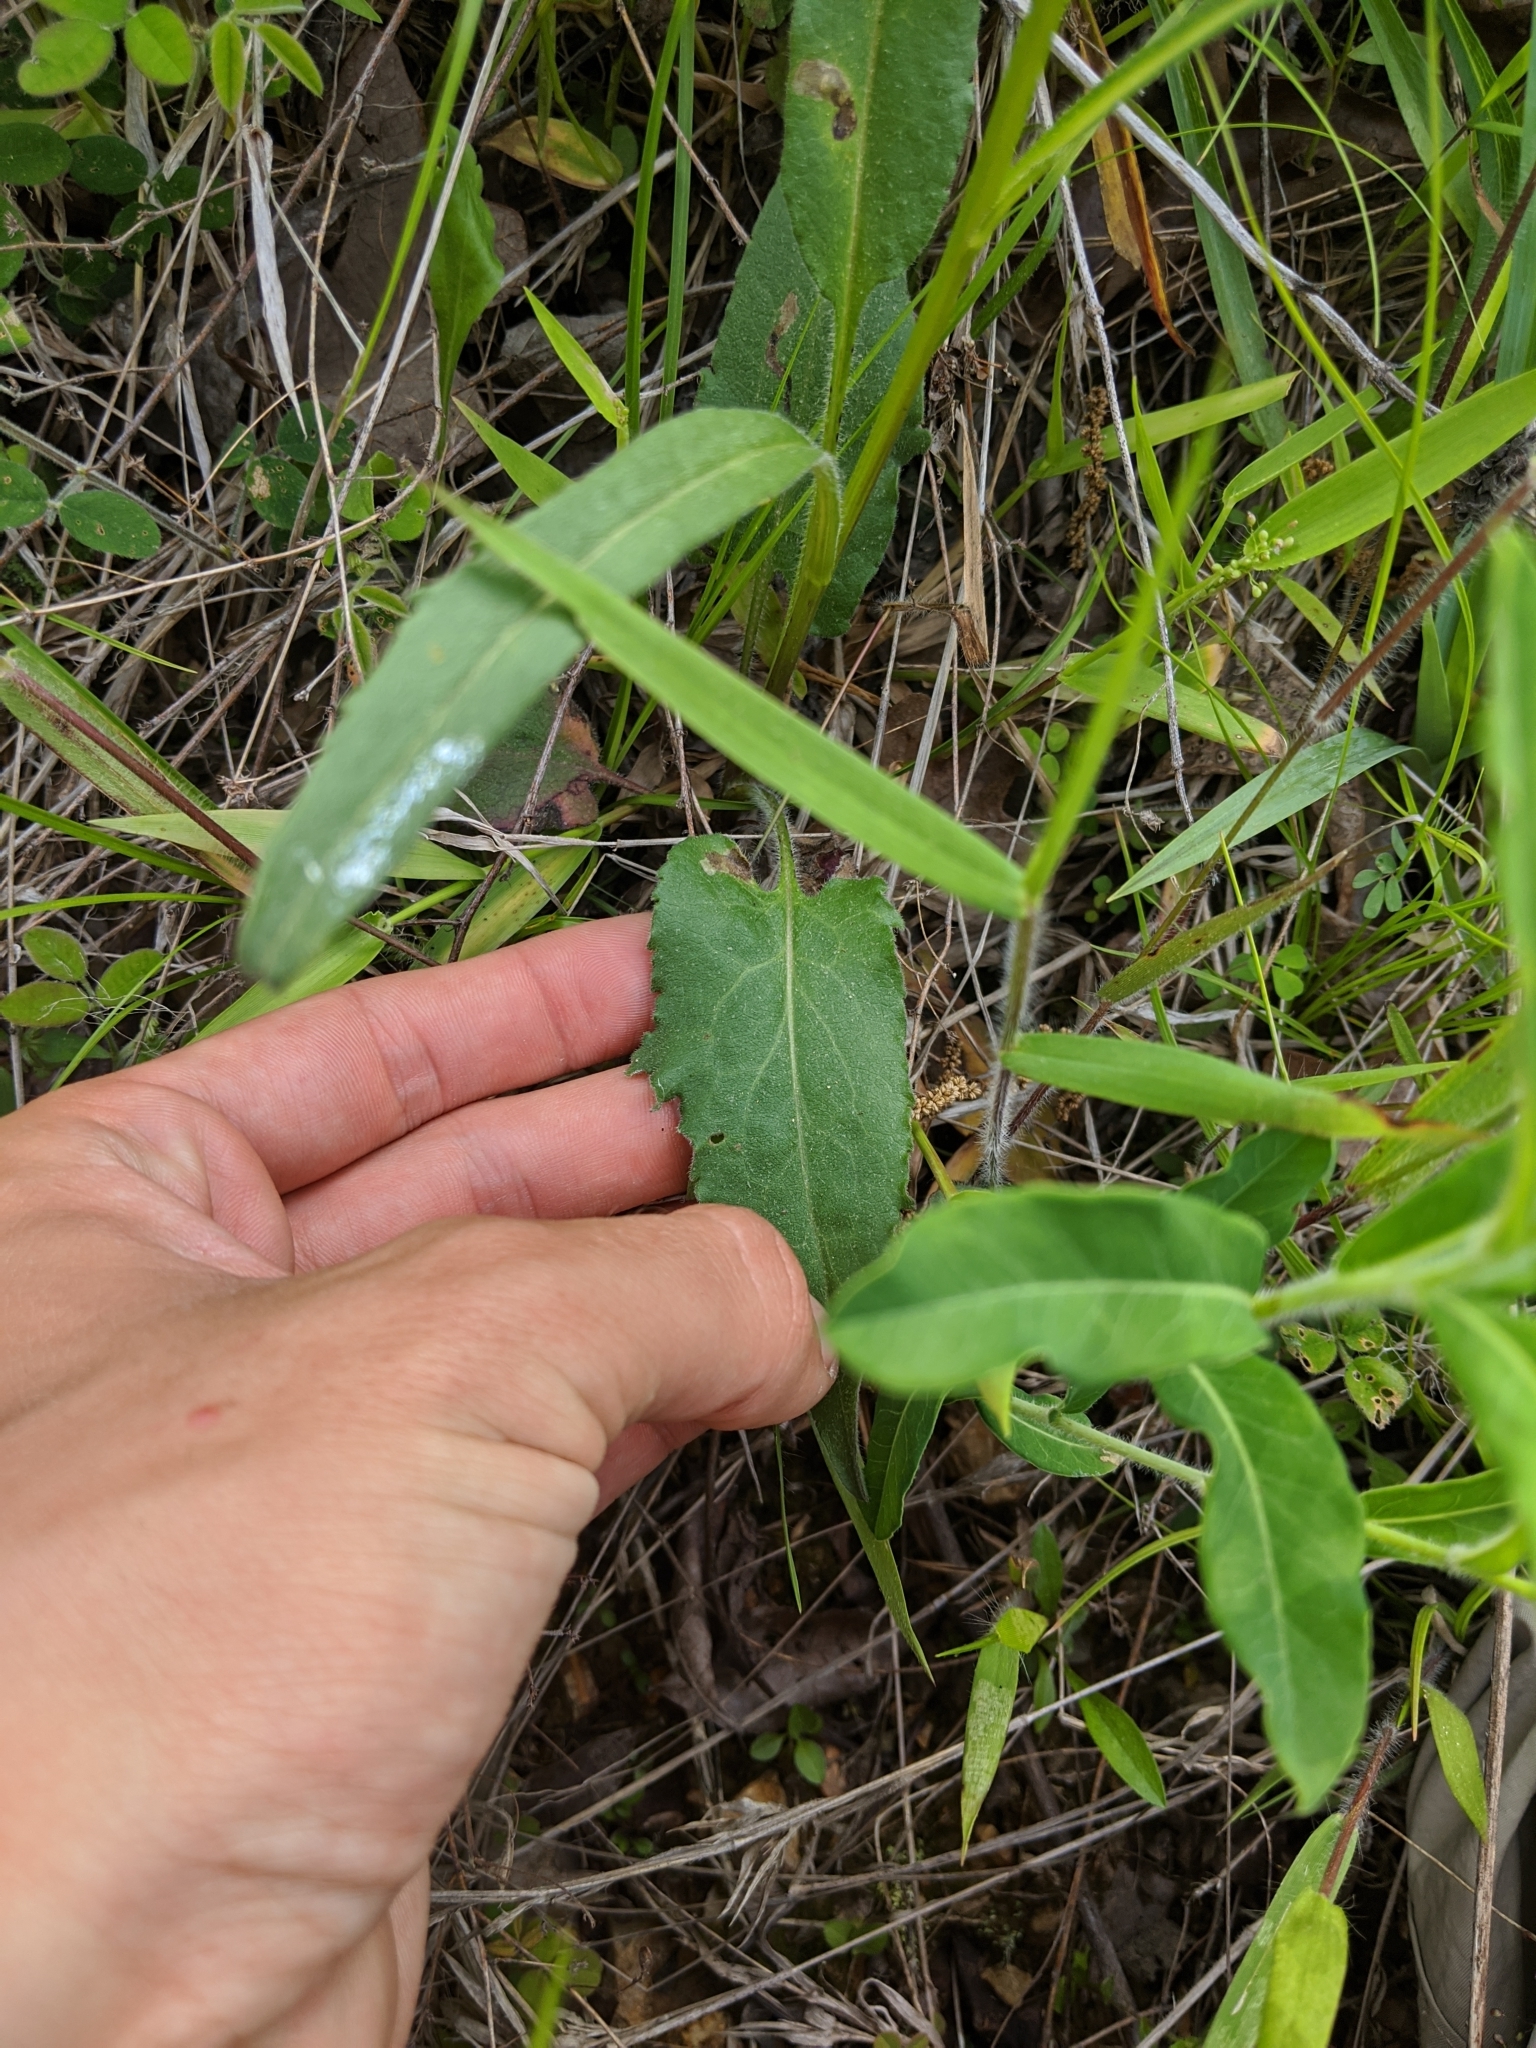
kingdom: Plantae
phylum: Tracheophyta
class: Magnoliopsida
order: Asterales
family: Asteraceae
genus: Symphyotrichum
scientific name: Symphyotrichum oolentangiense
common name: Azure aster
